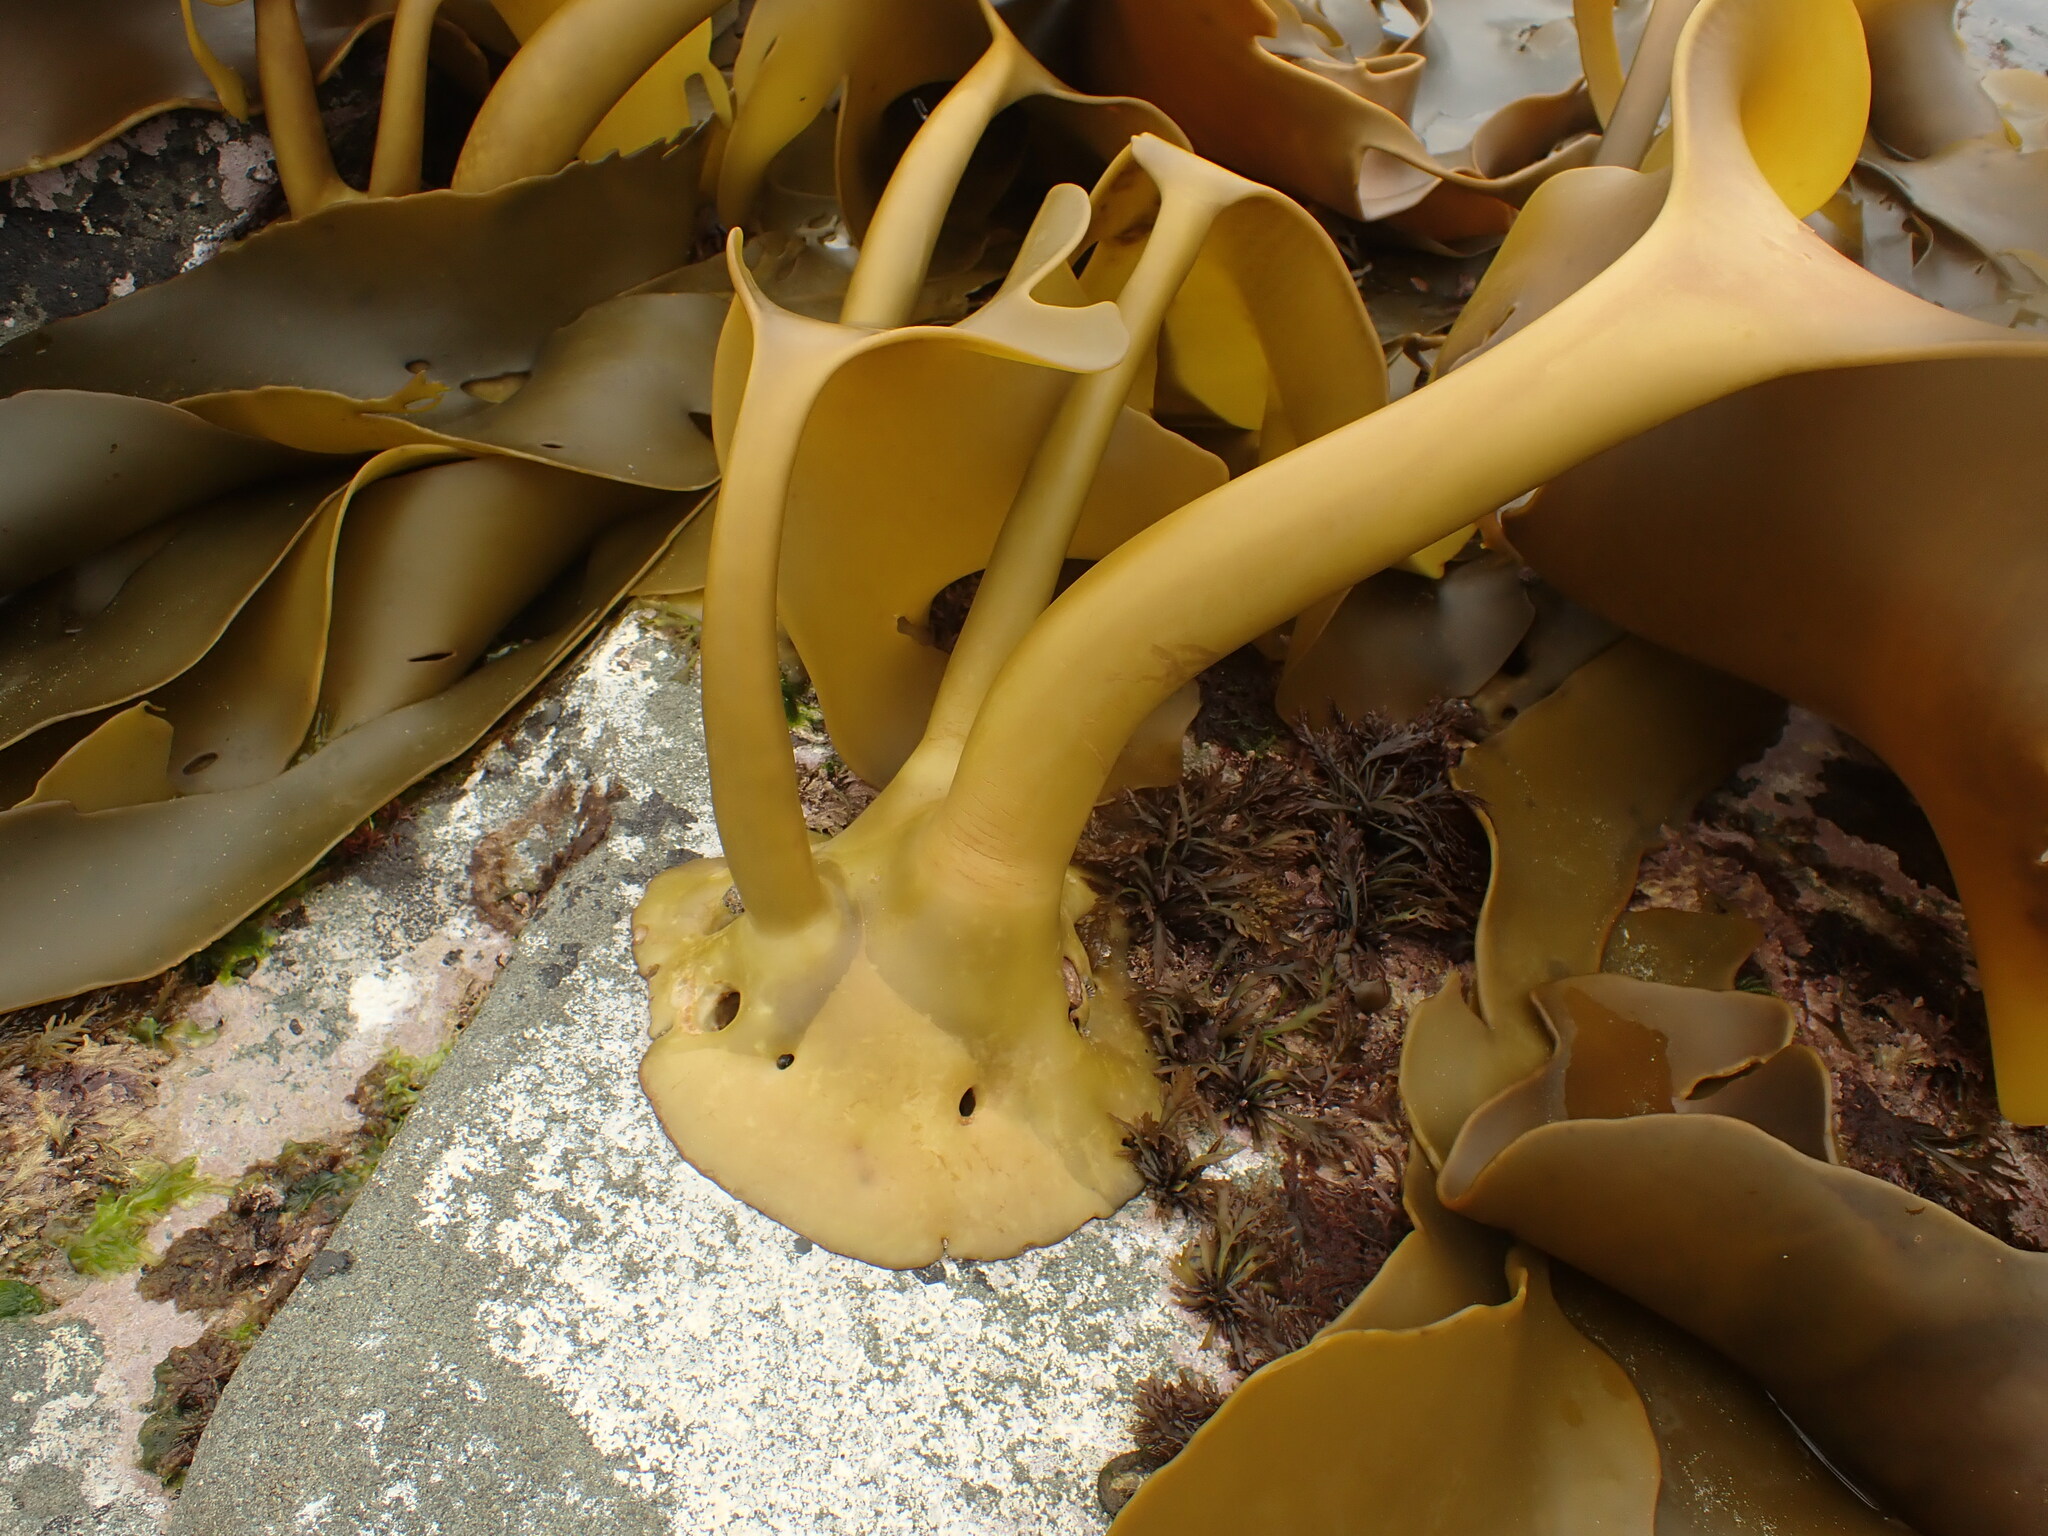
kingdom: Chromista
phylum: Ochrophyta
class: Phaeophyceae
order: Fucales
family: Durvillaeaceae
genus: Durvillaea
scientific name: Durvillaea poha
